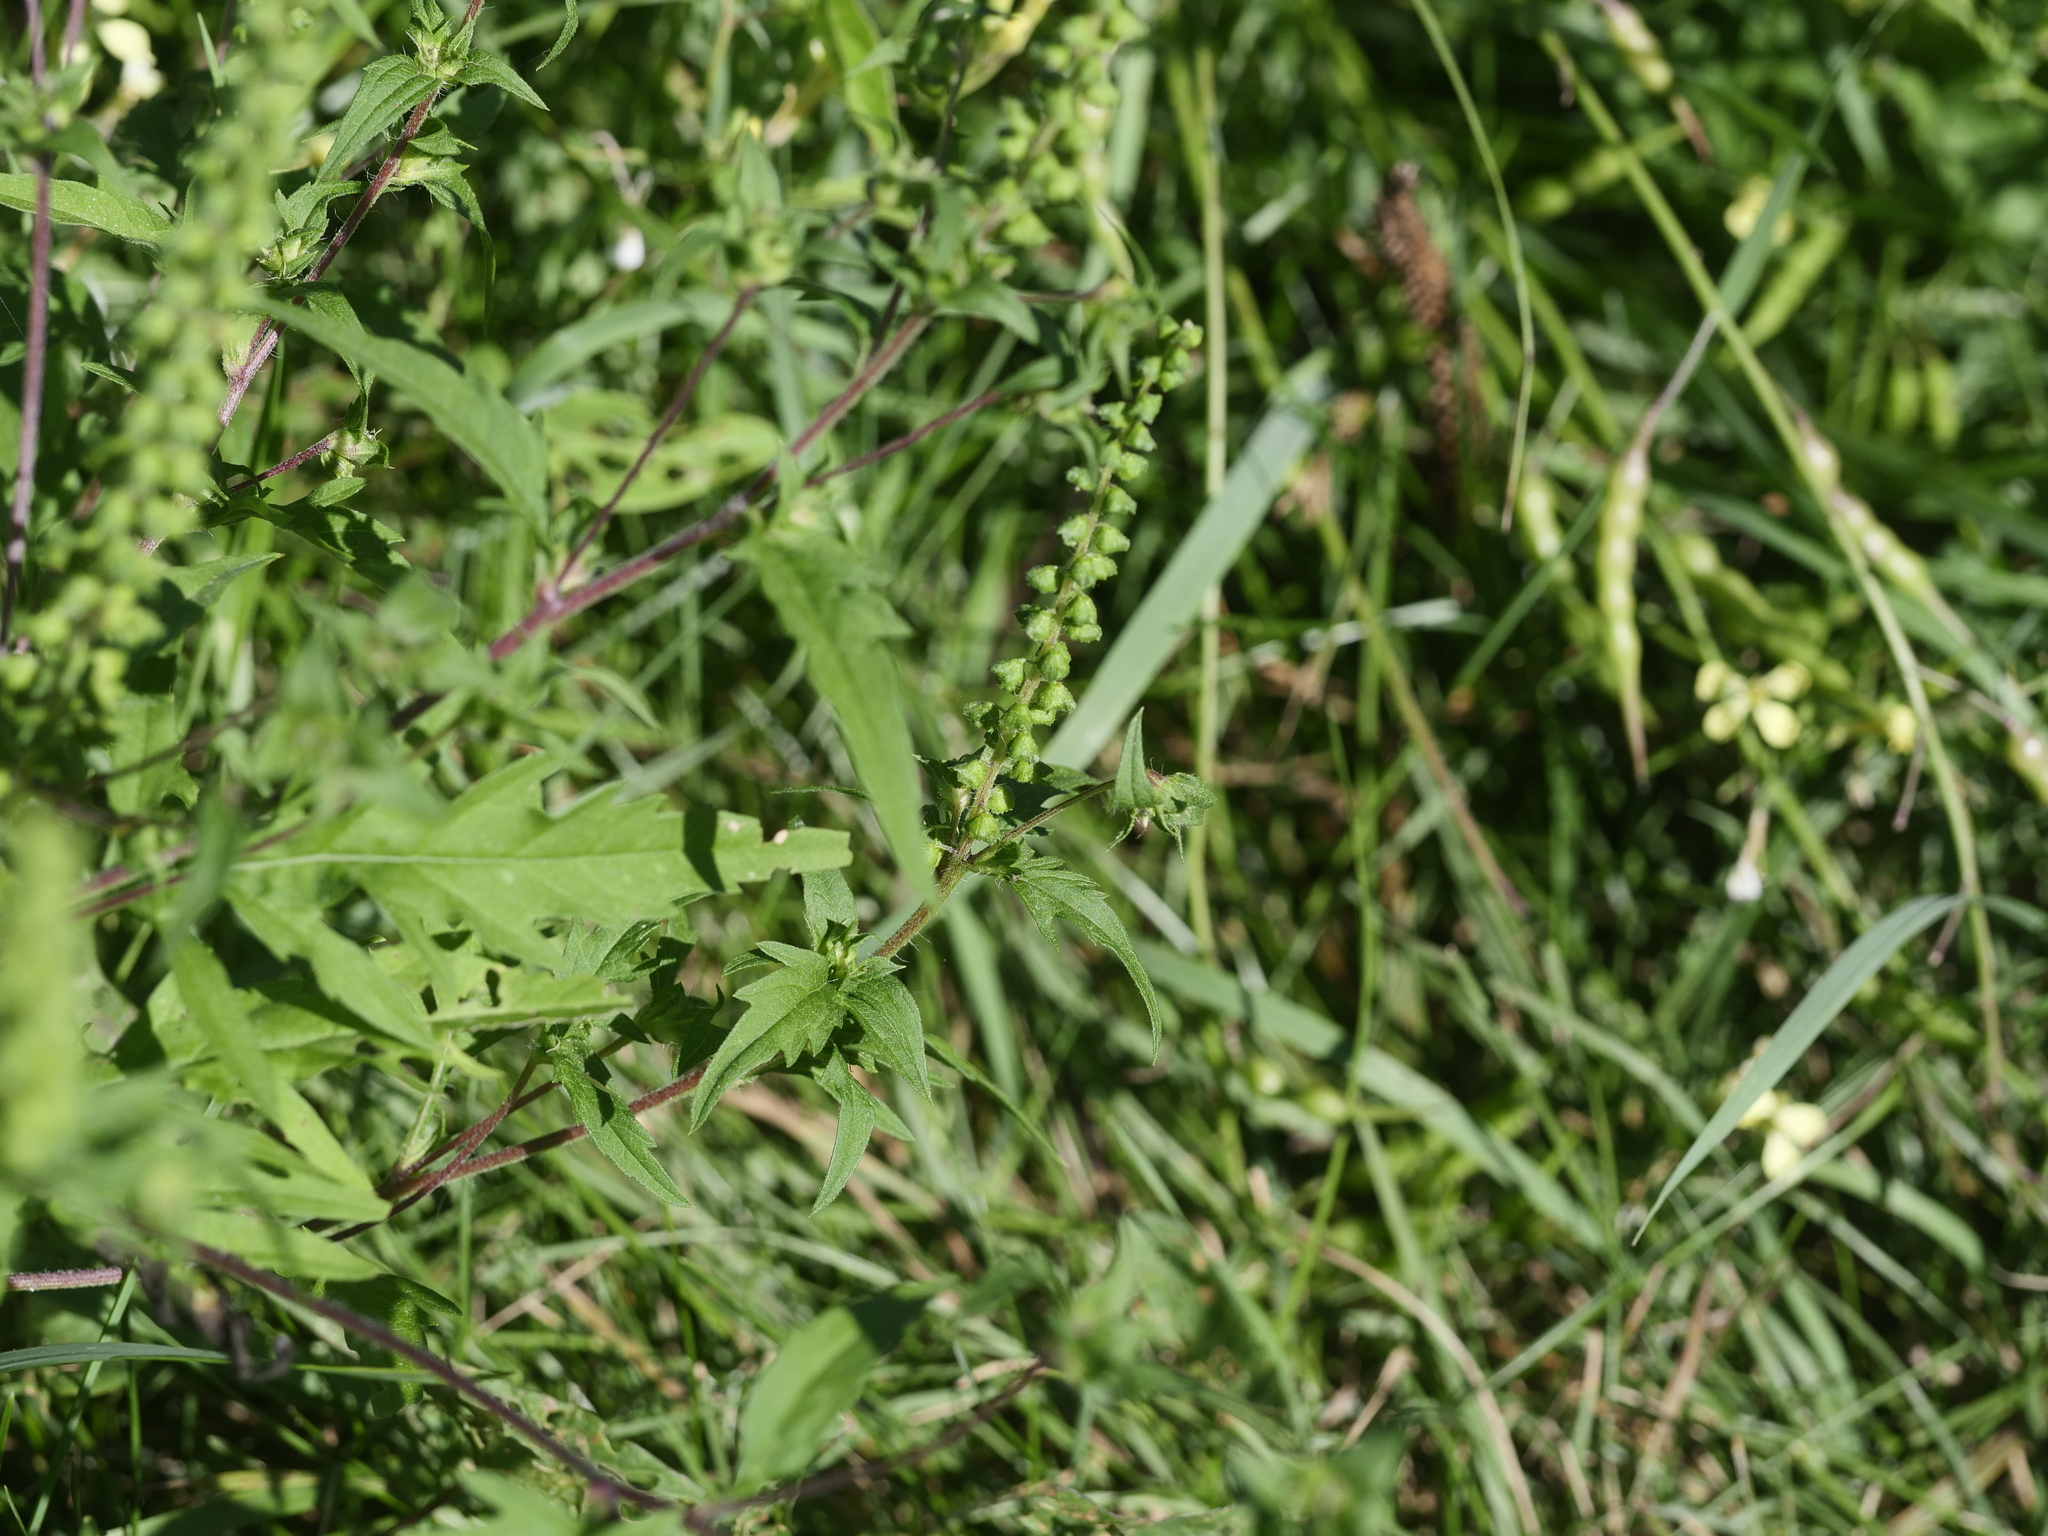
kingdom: Plantae
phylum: Tracheophyta
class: Magnoliopsida
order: Asterales
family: Asteraceae
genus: Ambrosia
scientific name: Ambrosia artemisiifolia
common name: Annual ragweed
